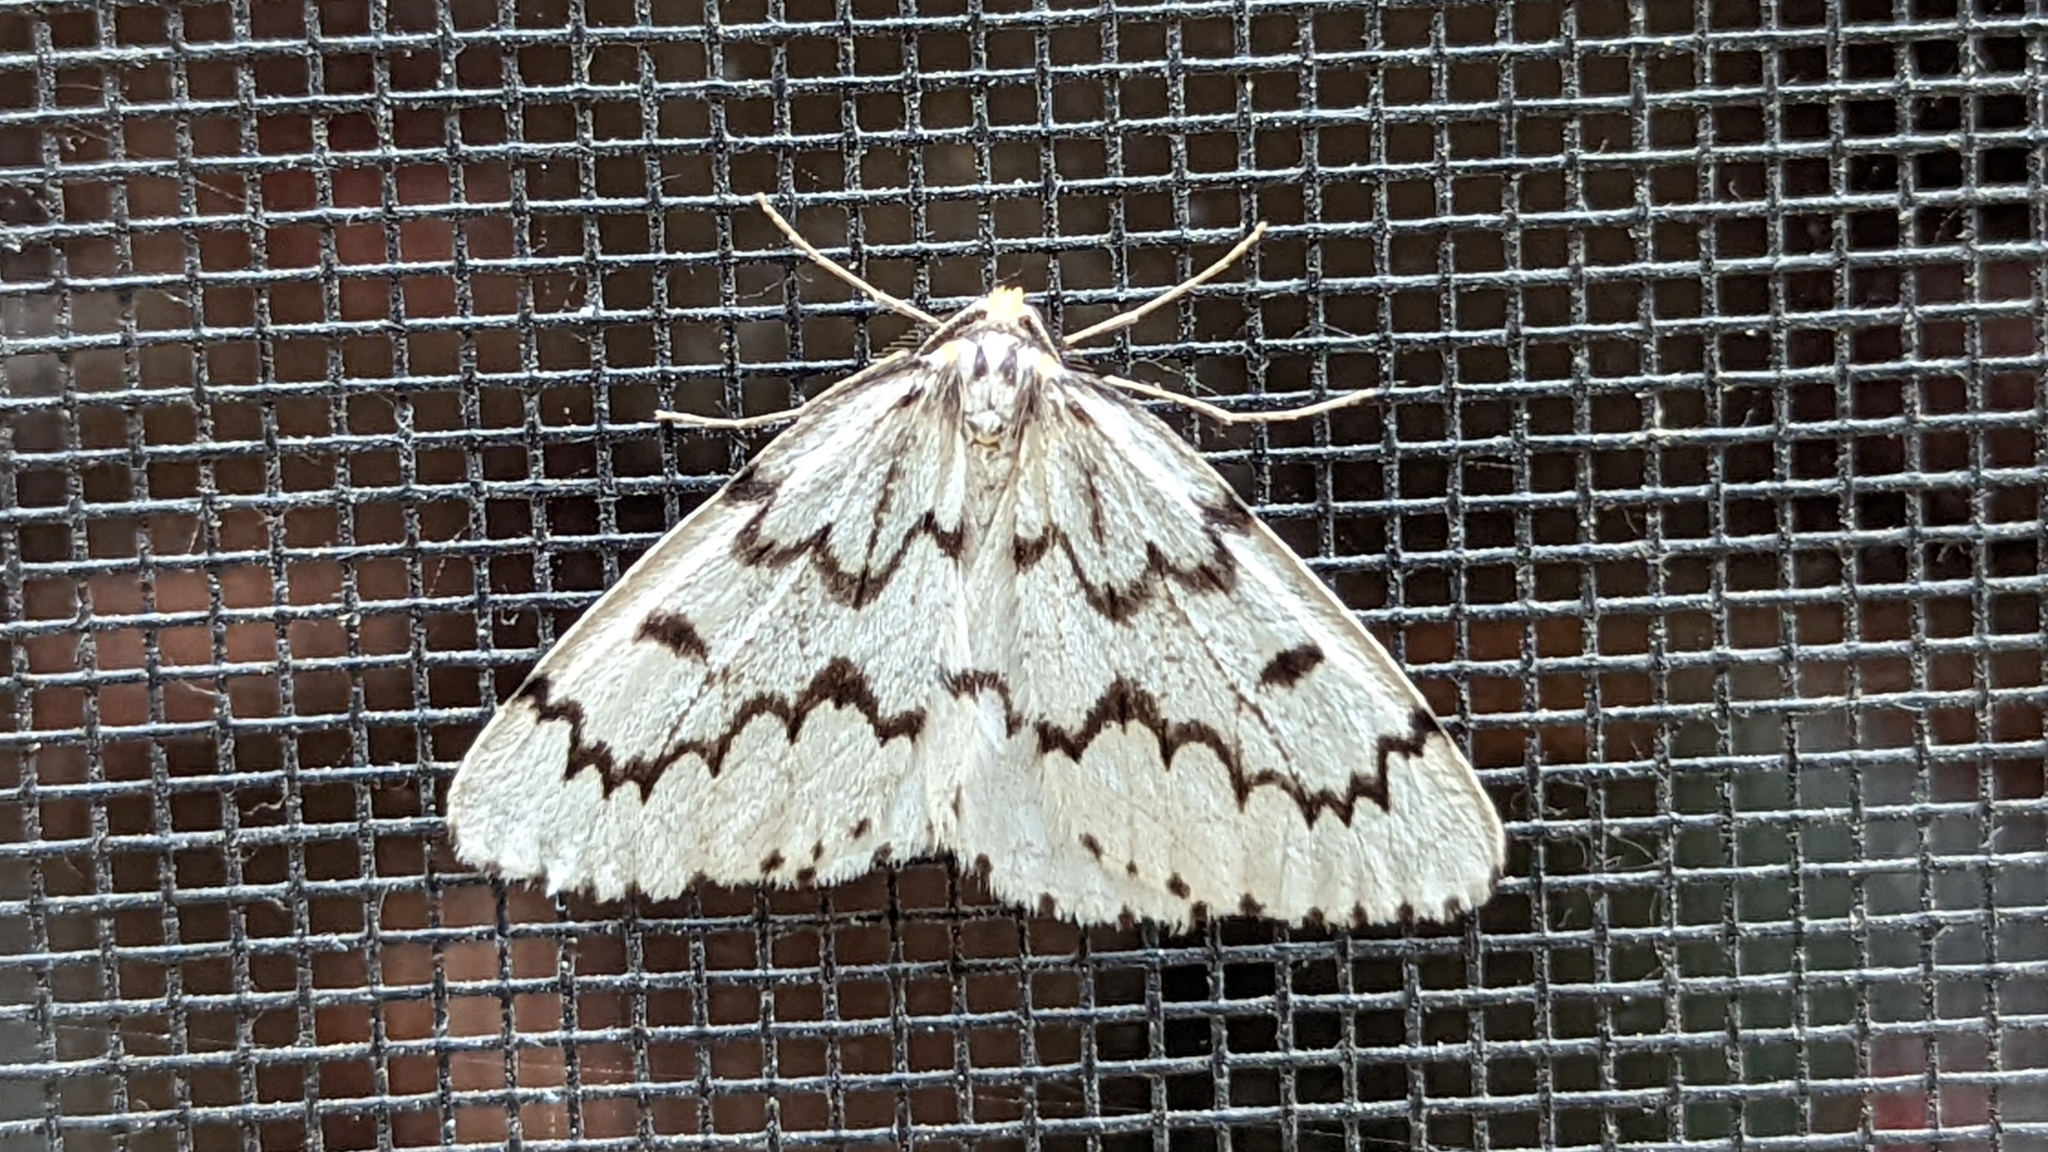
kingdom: Animalia
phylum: Arthropoda
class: Insecta
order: Lepidoptera
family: Geometridae
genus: Nepytia
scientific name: Nepytia phantasmaria
